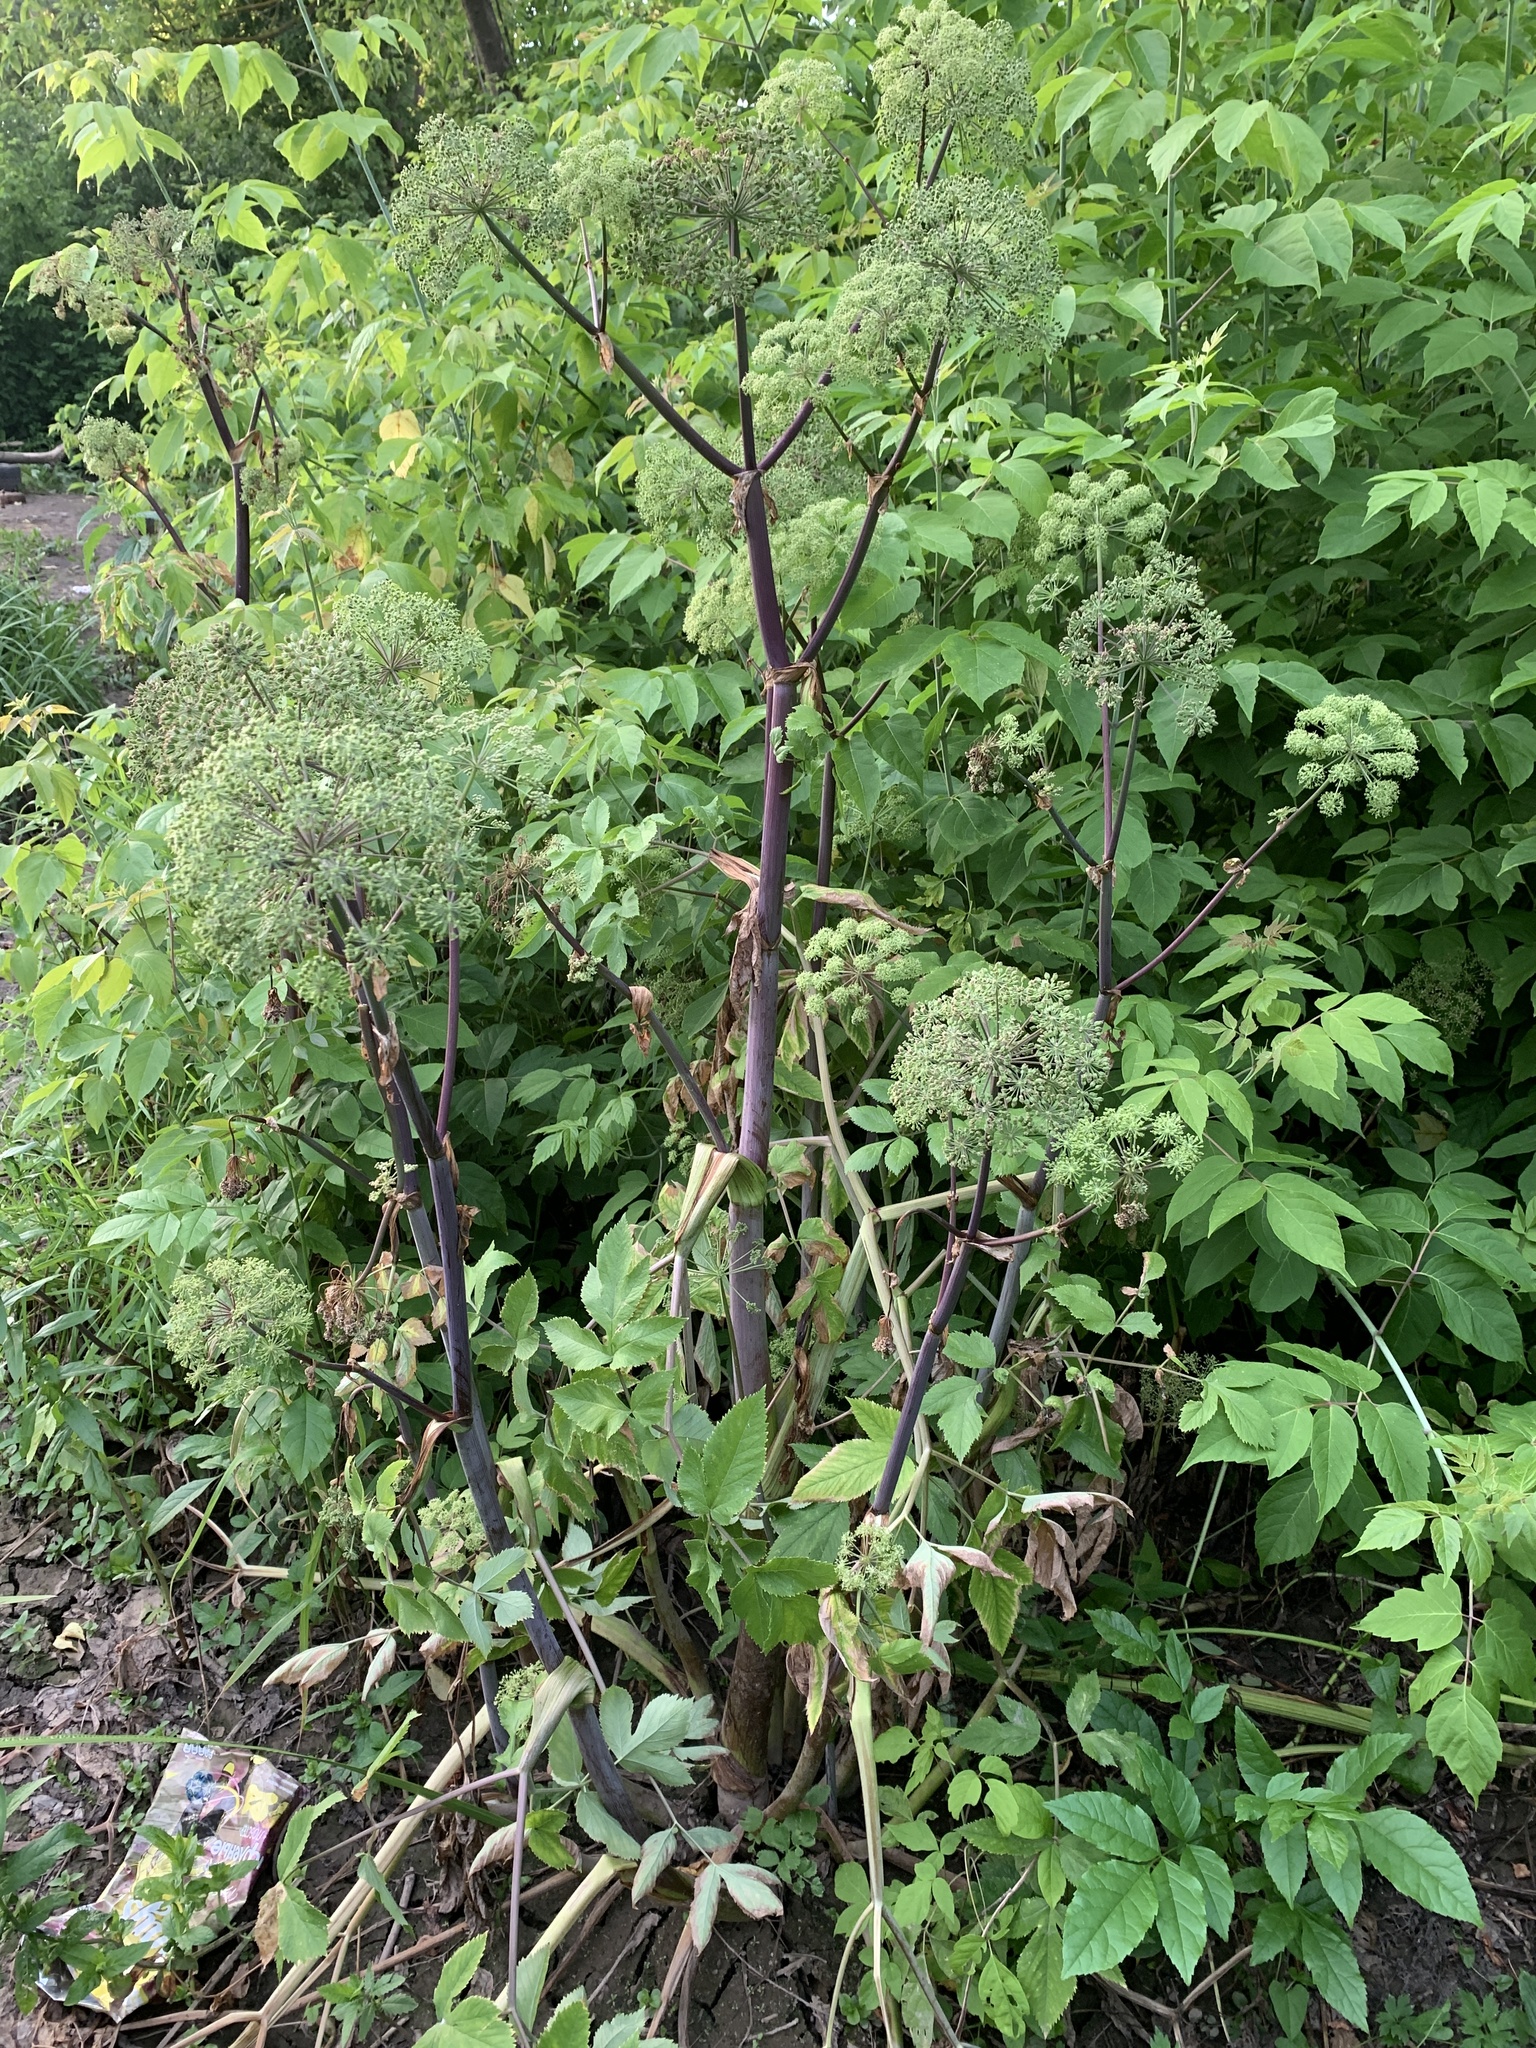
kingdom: Plantae
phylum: Tracheophyta
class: Magnoliopsida
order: Apiales
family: Apiaceae
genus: Angelica
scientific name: Angelica archangelica
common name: Garden angelica
